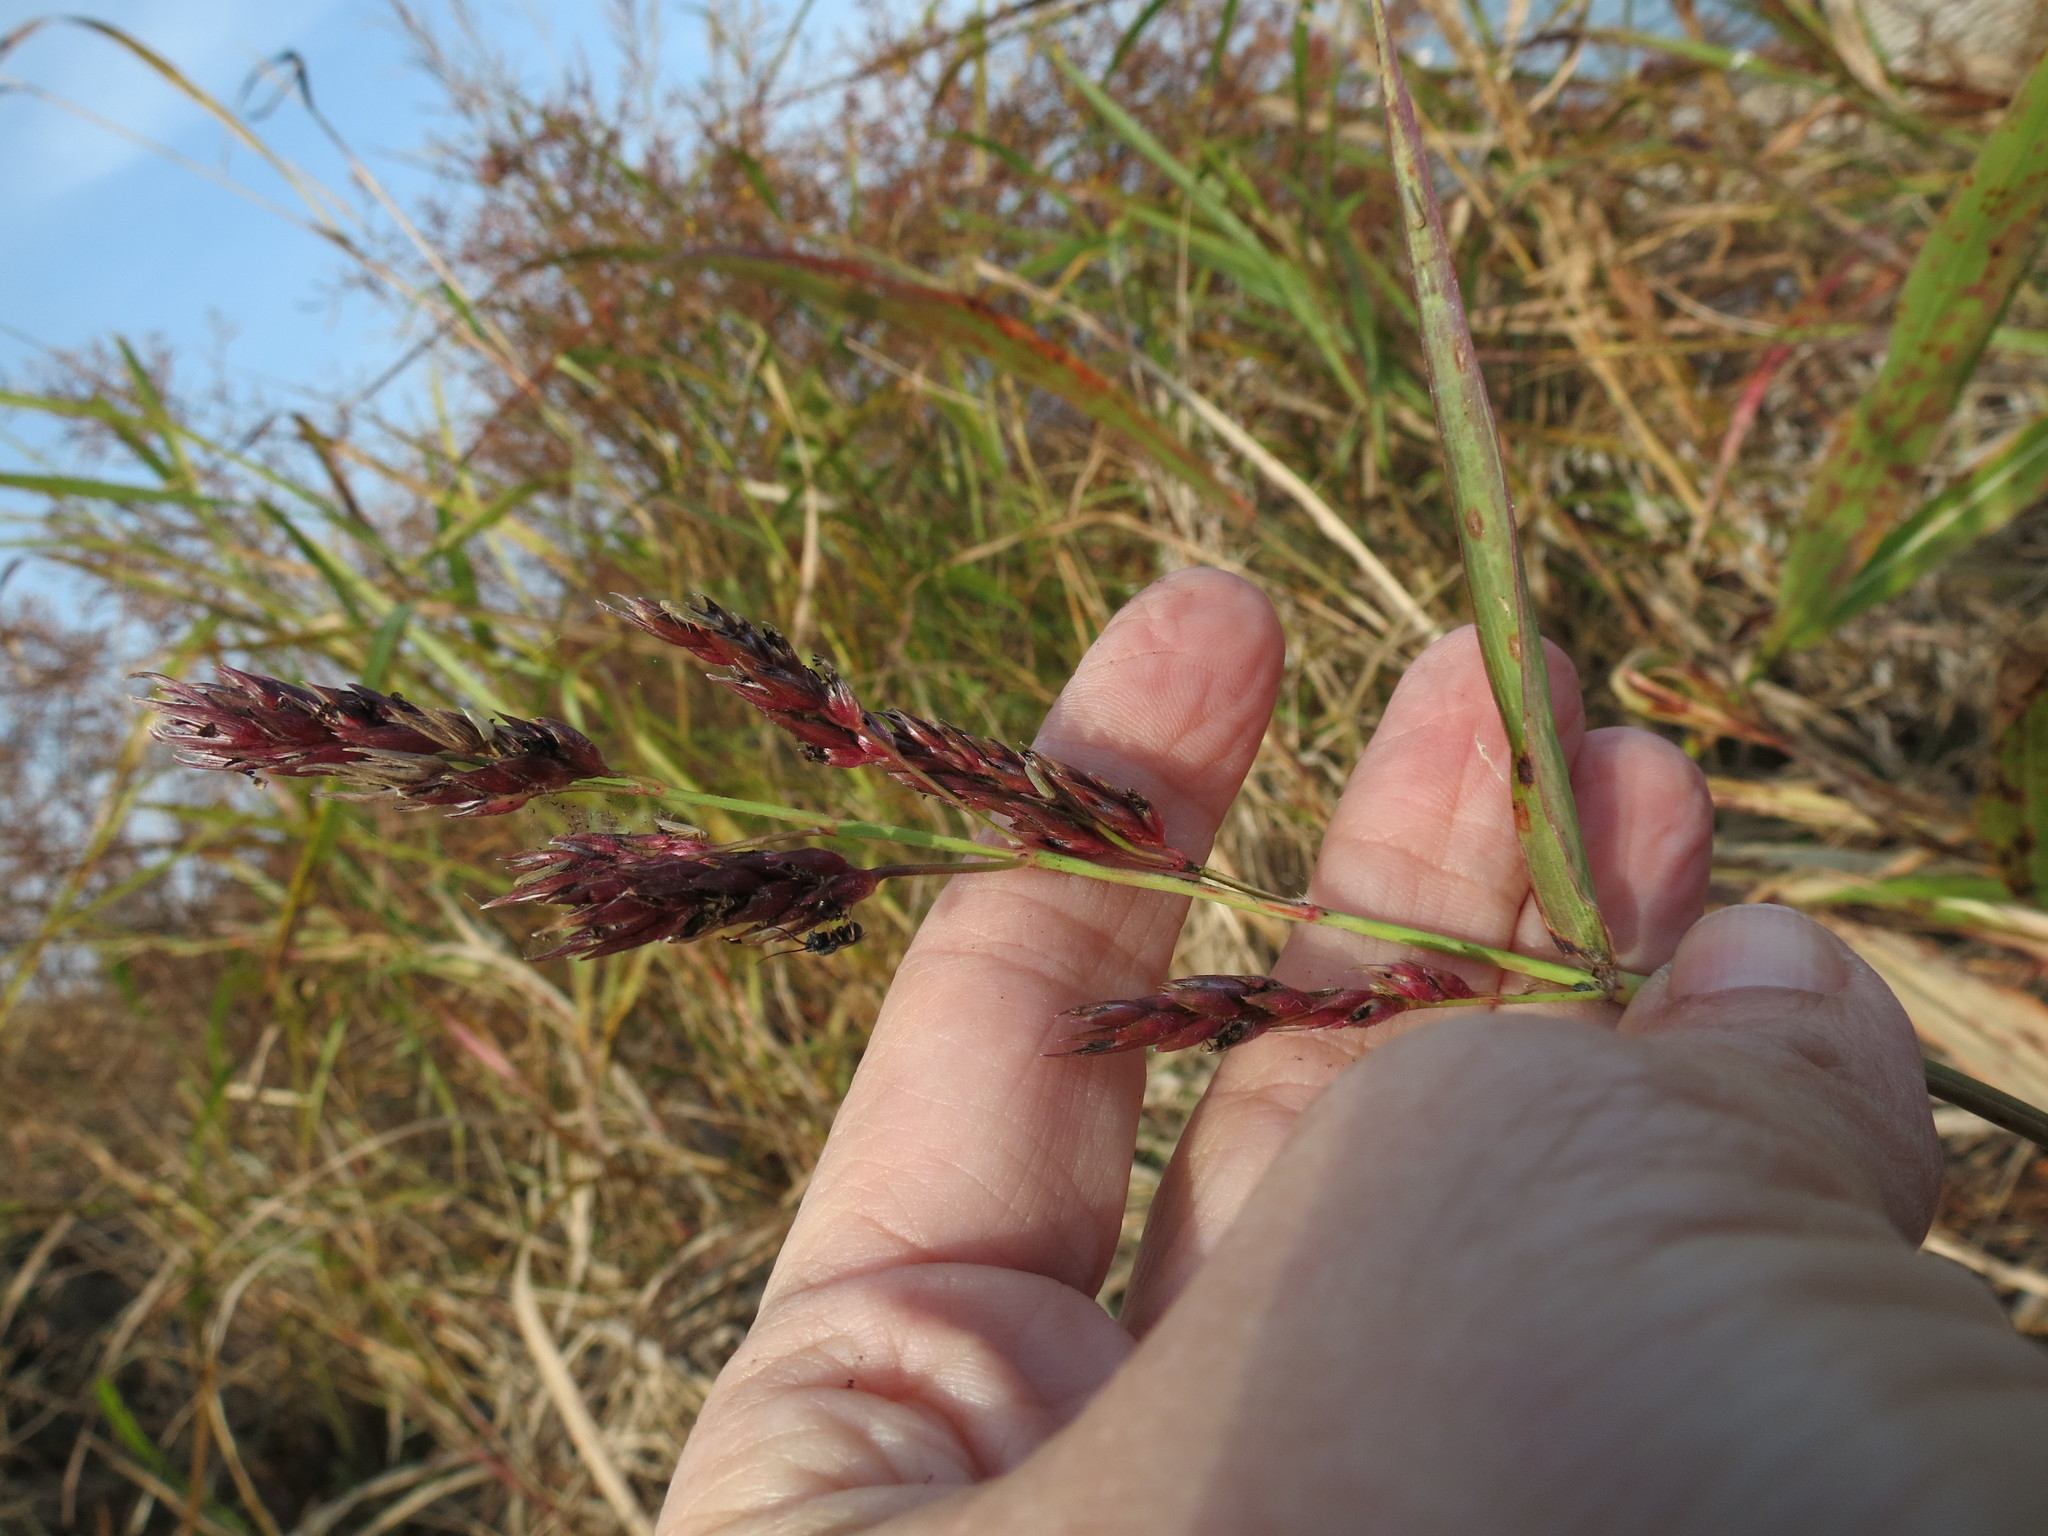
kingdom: Plantae
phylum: Tracheophyta
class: Liliopsida
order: Poales
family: Poaceae
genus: Sorghum
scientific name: Sorghum halepense
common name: Johnson-grass
